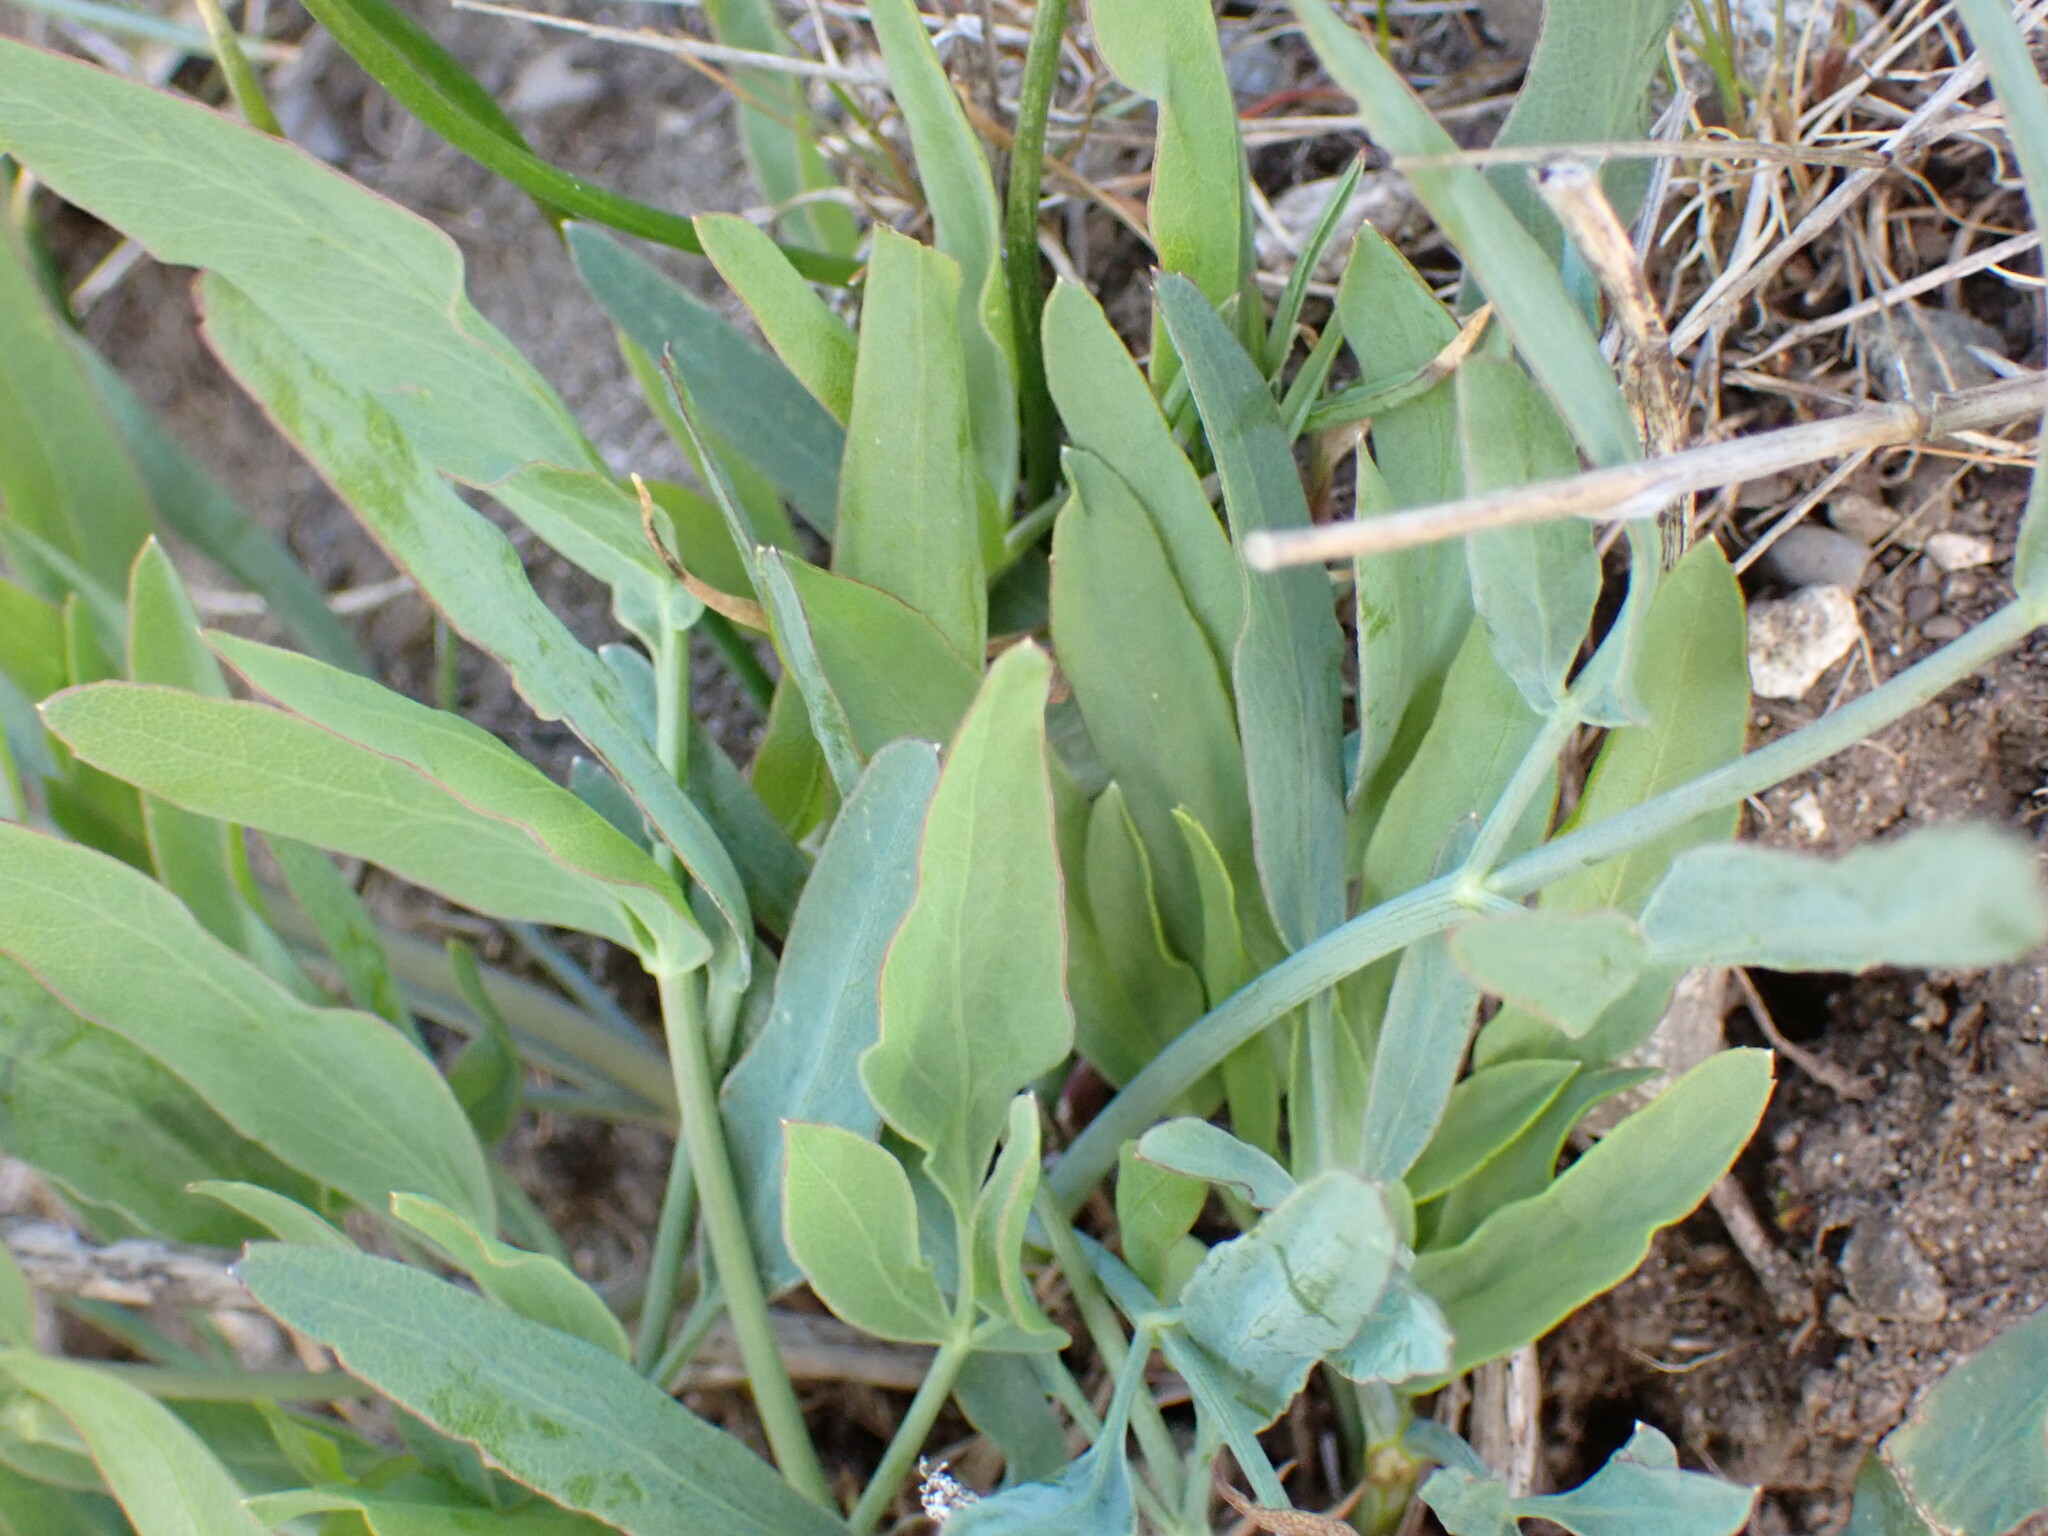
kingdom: Plantae
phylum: Tracheophyta
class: Magnoliopsida
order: Apiales
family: Apiaceae
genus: Lomatium
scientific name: Lomatium nudicaule
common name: Pestle lomatium
